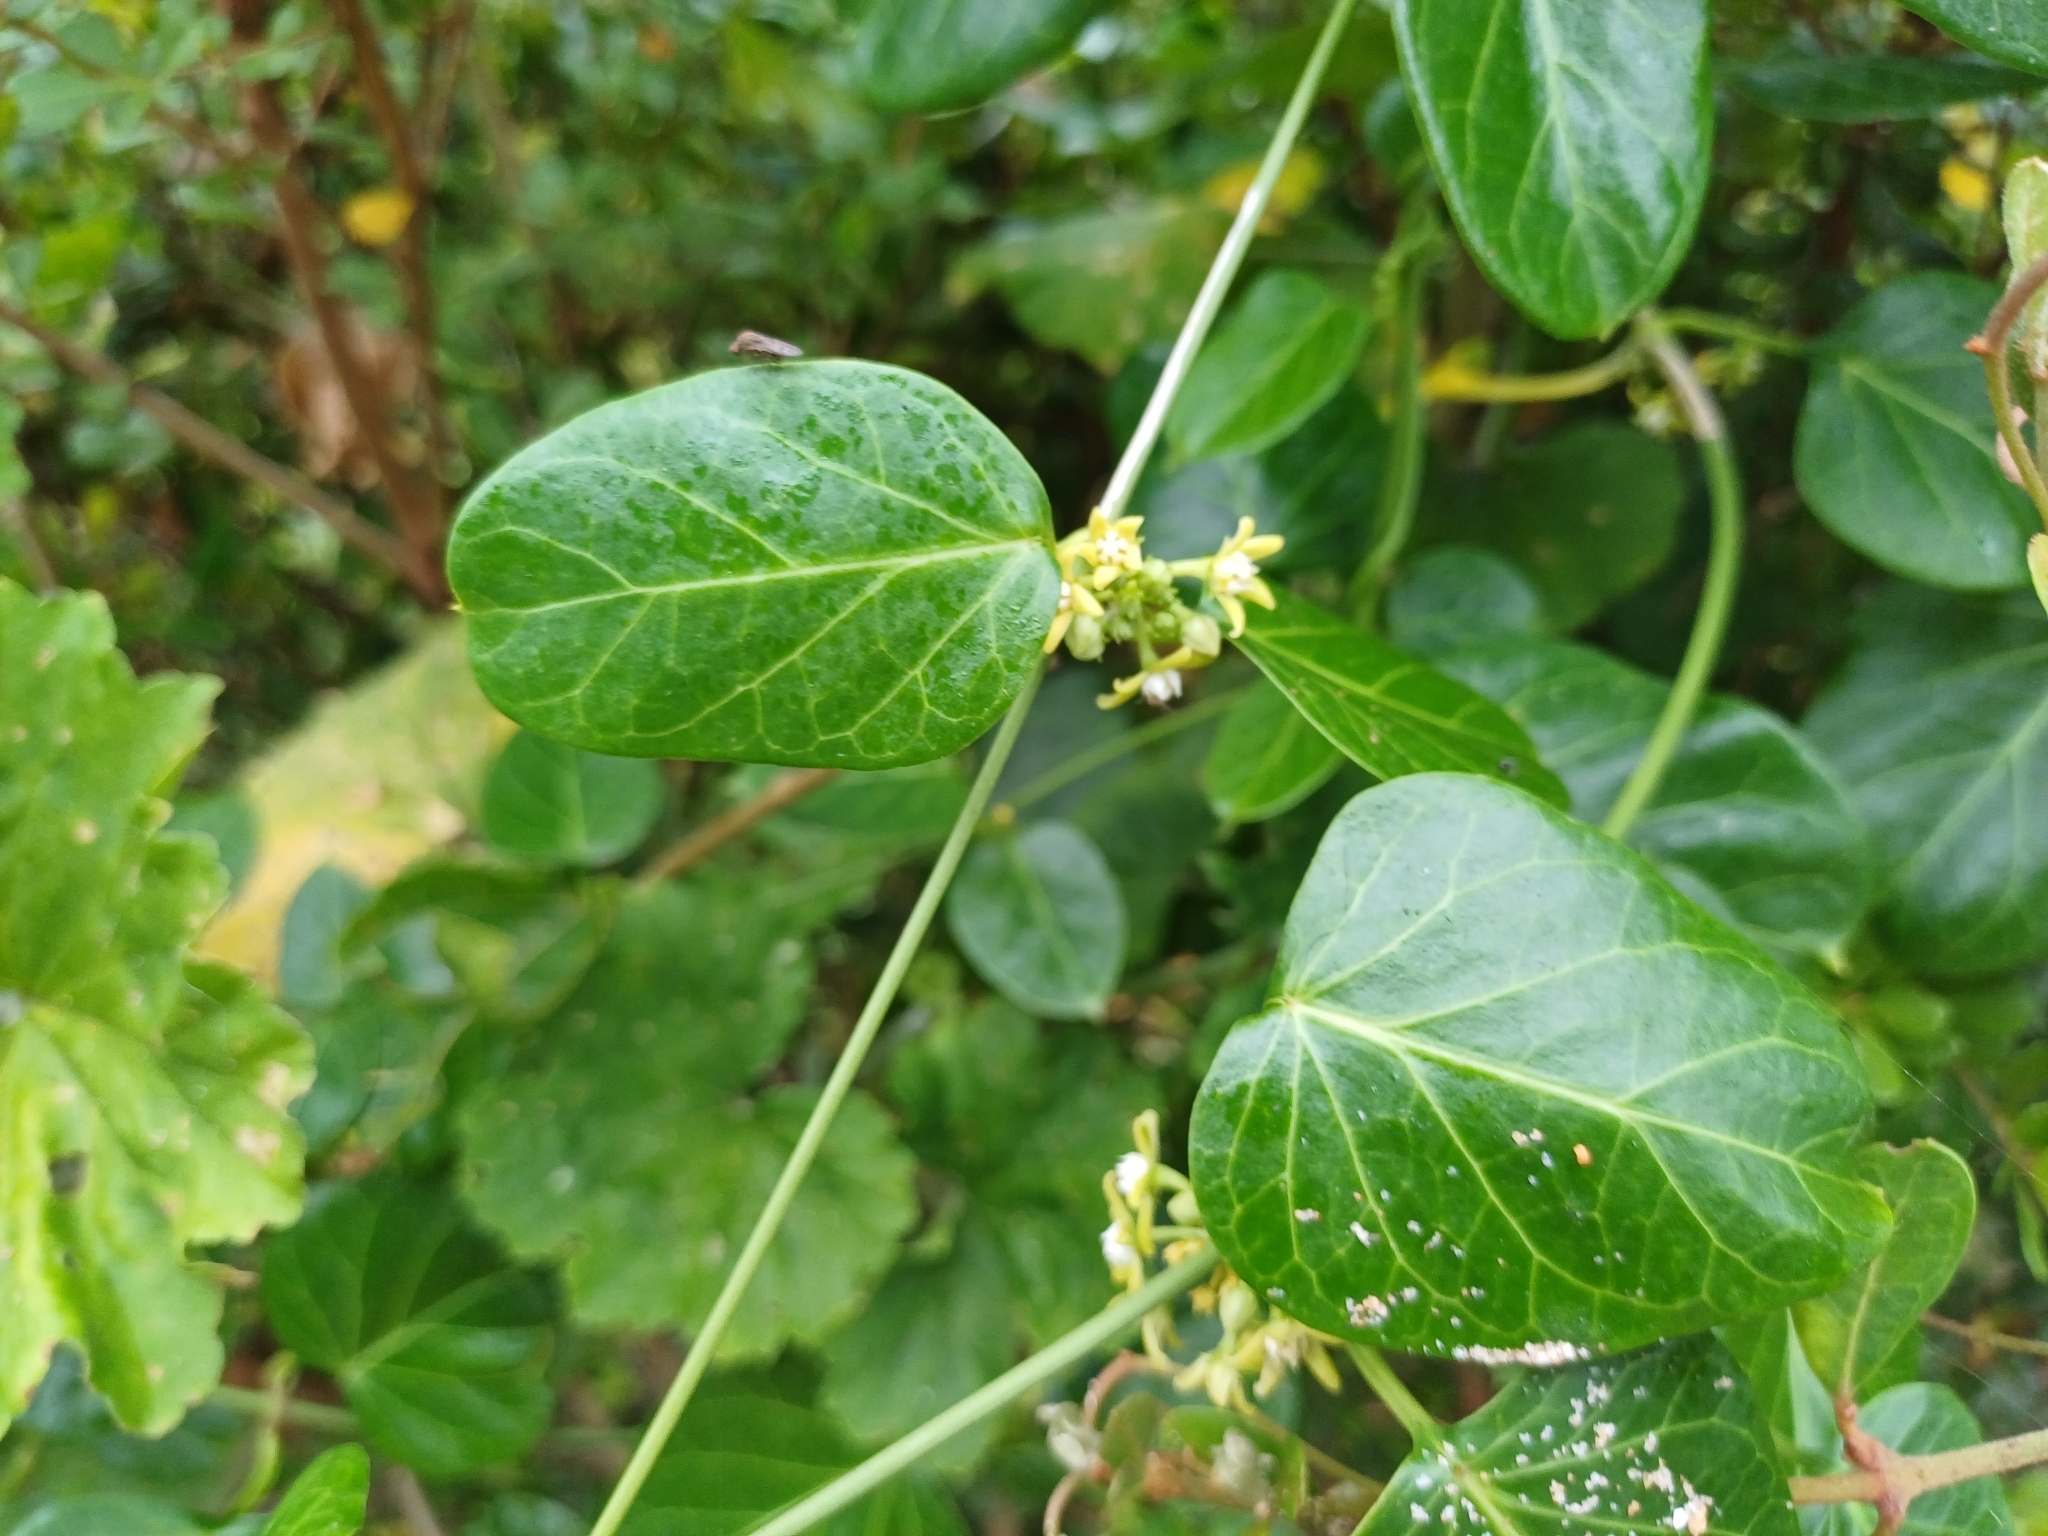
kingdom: Plantae
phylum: Tracheophyta
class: Magnoliopsida
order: Gentianales
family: Apocynaceae
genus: Cynanchum
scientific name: Cynanchum obtusifolium
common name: Monkey-rope
